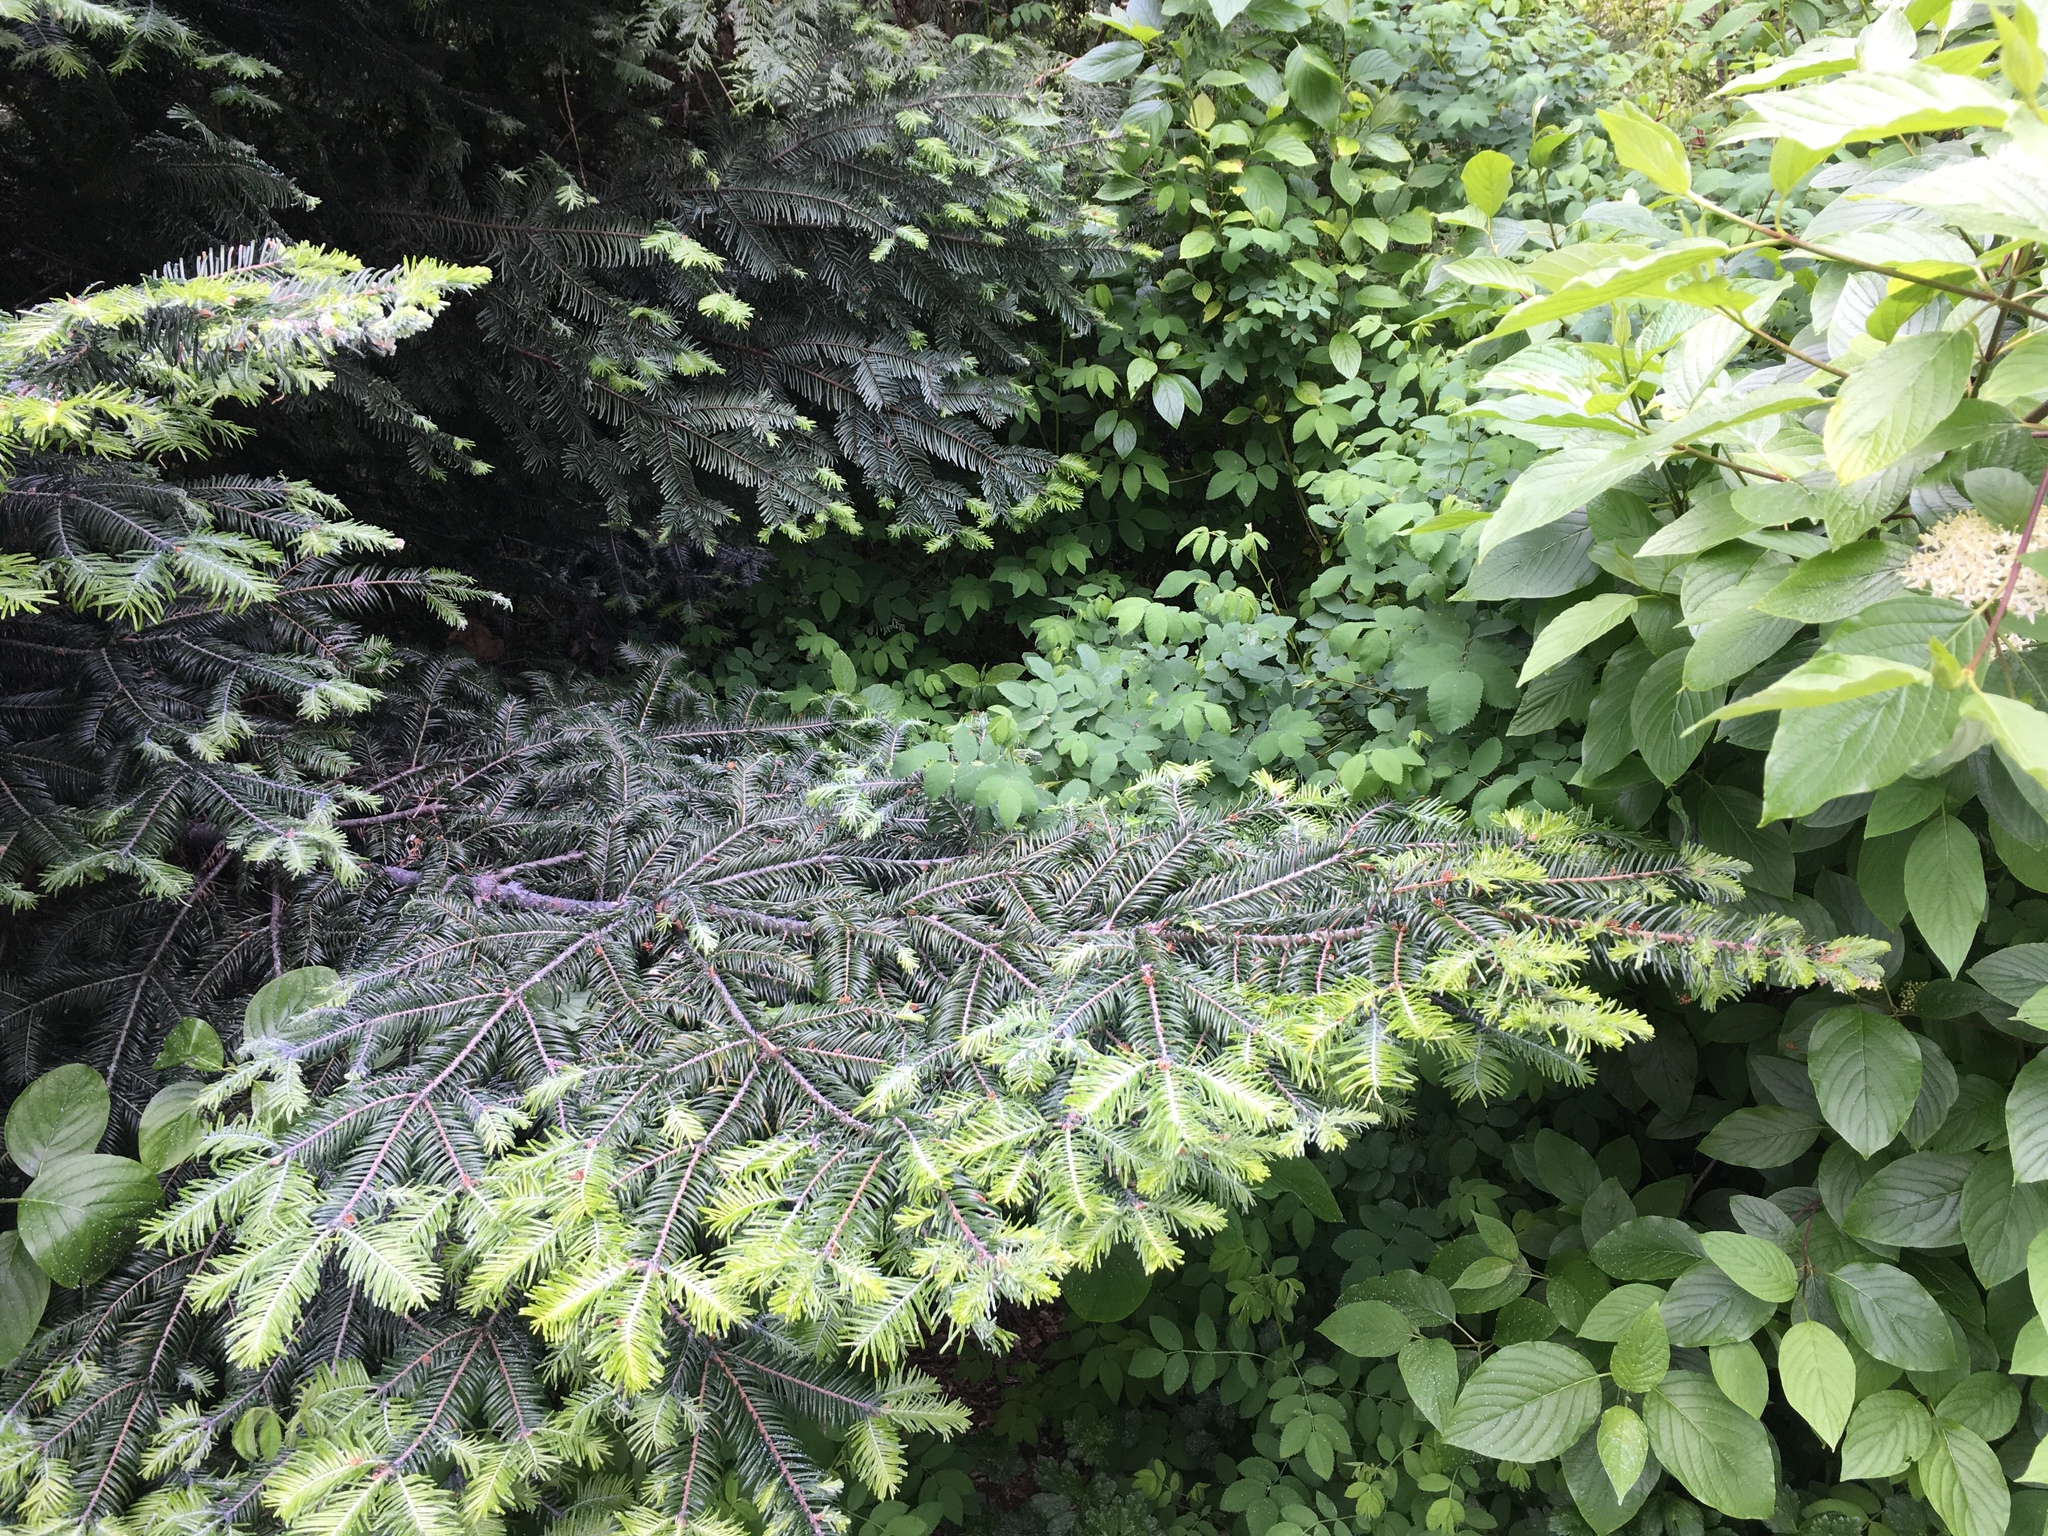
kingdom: Plantae
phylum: Tracheophyta
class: Pinopsida
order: Pinales
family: Pinaceae
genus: Abies
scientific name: Abies grandis
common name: Giant fir
